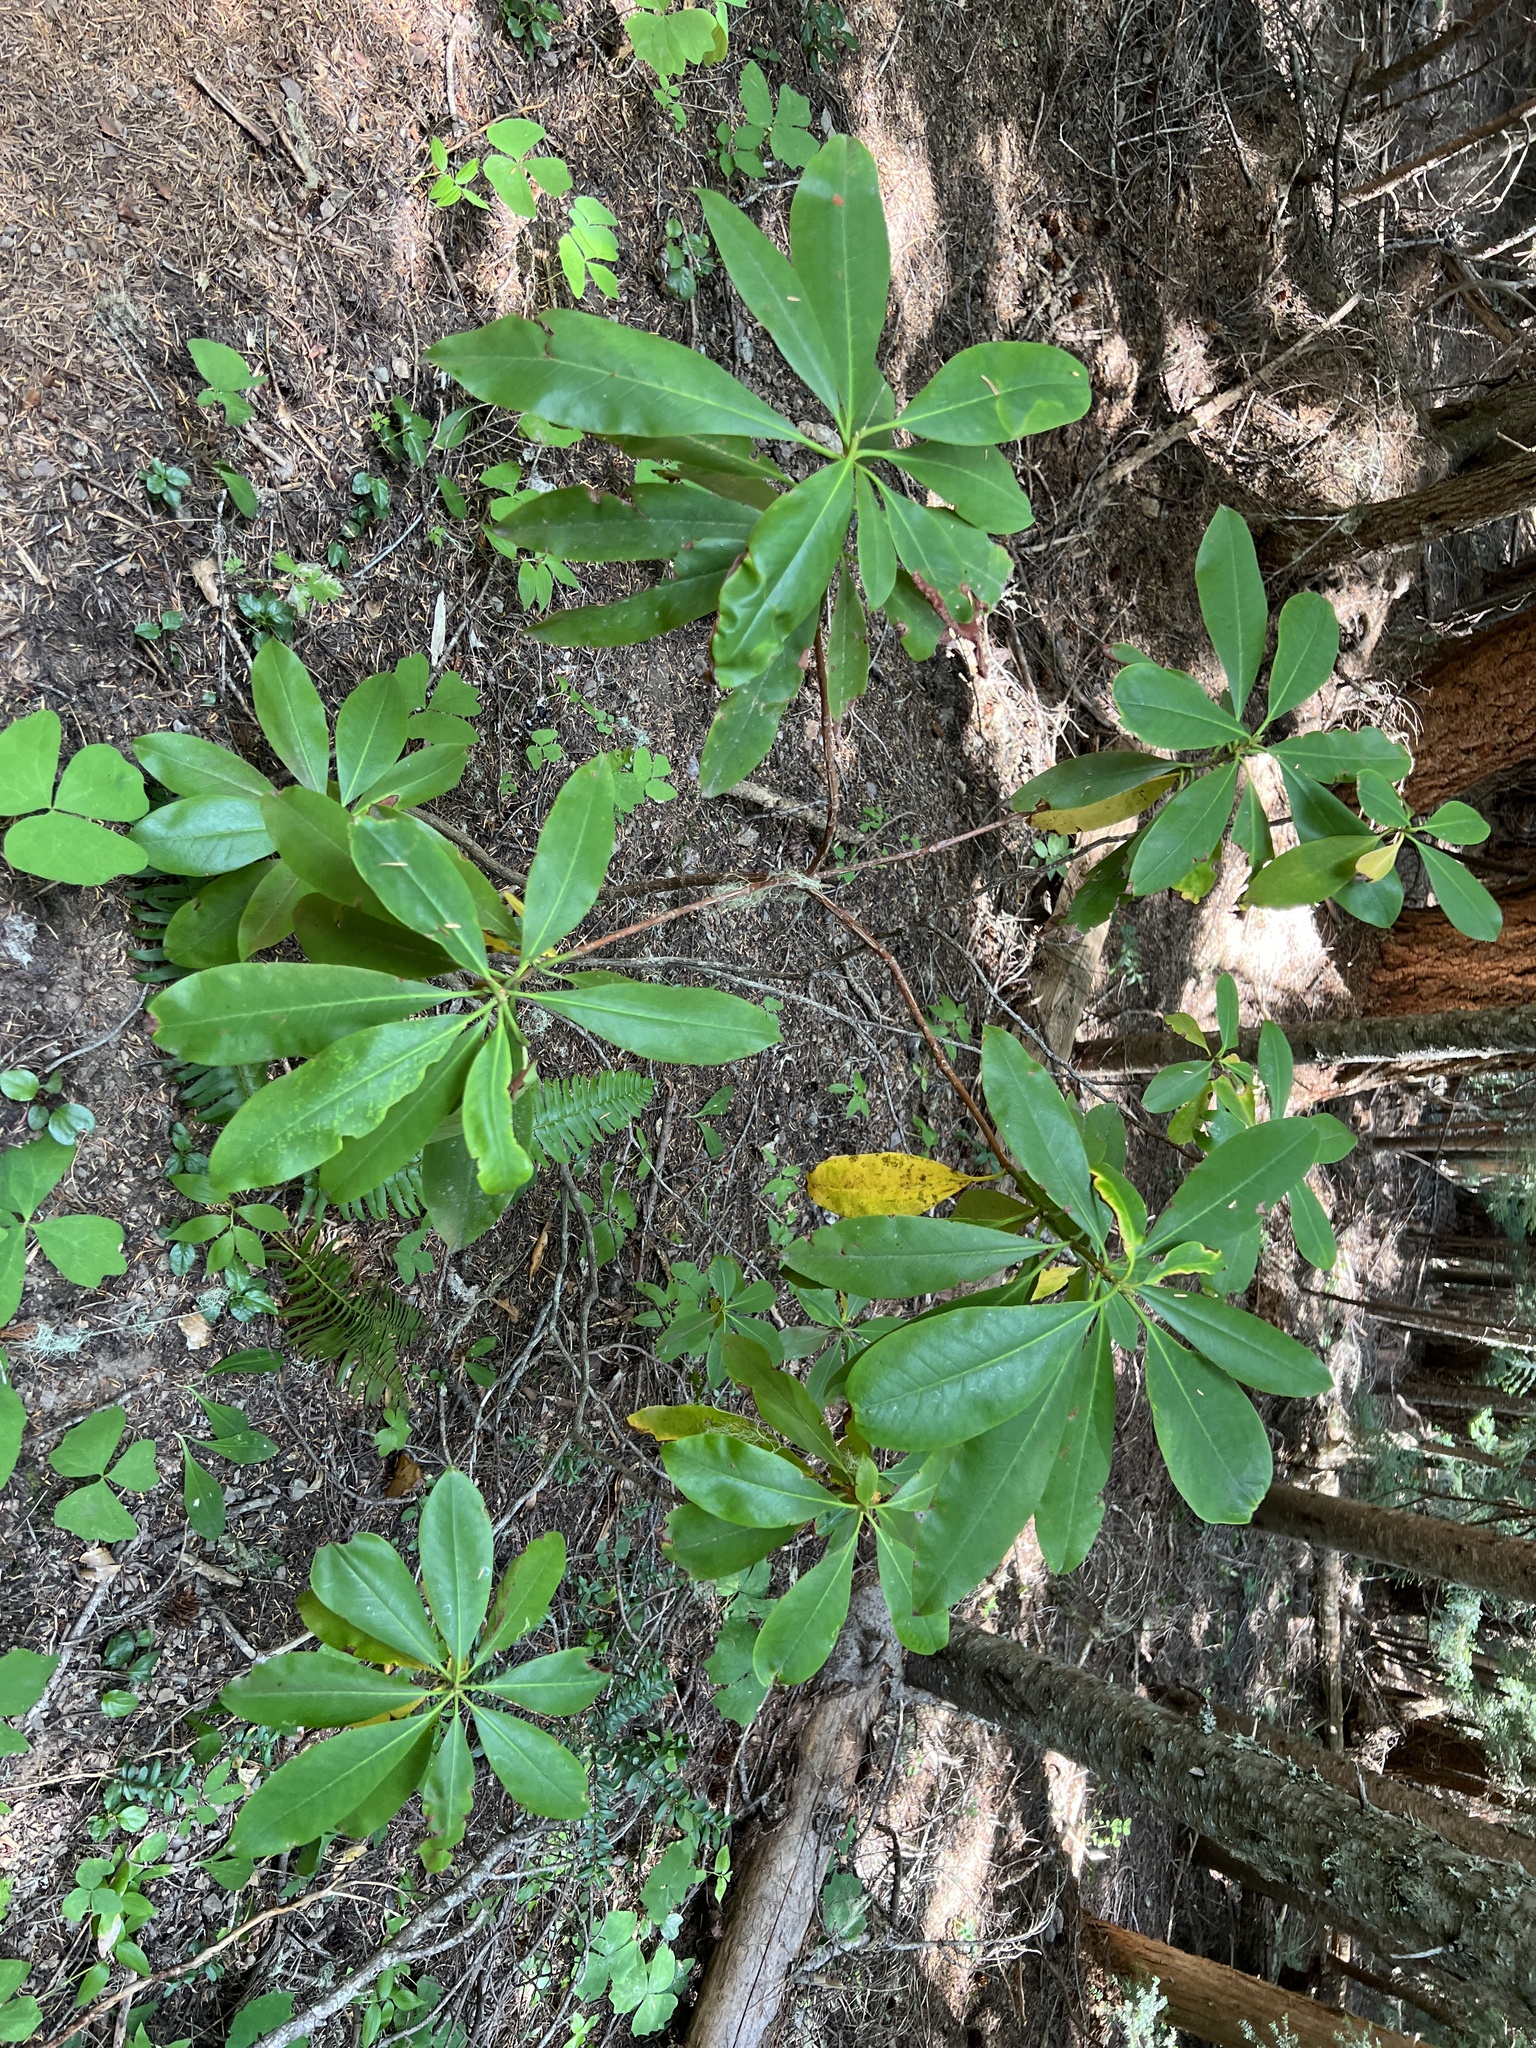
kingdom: Plantae
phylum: Tracheophyta
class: Magnoliopsida
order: Ericales
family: Ericaceae
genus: Rhododendron
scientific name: Rhododendron macrophyllum
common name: California rose bay
